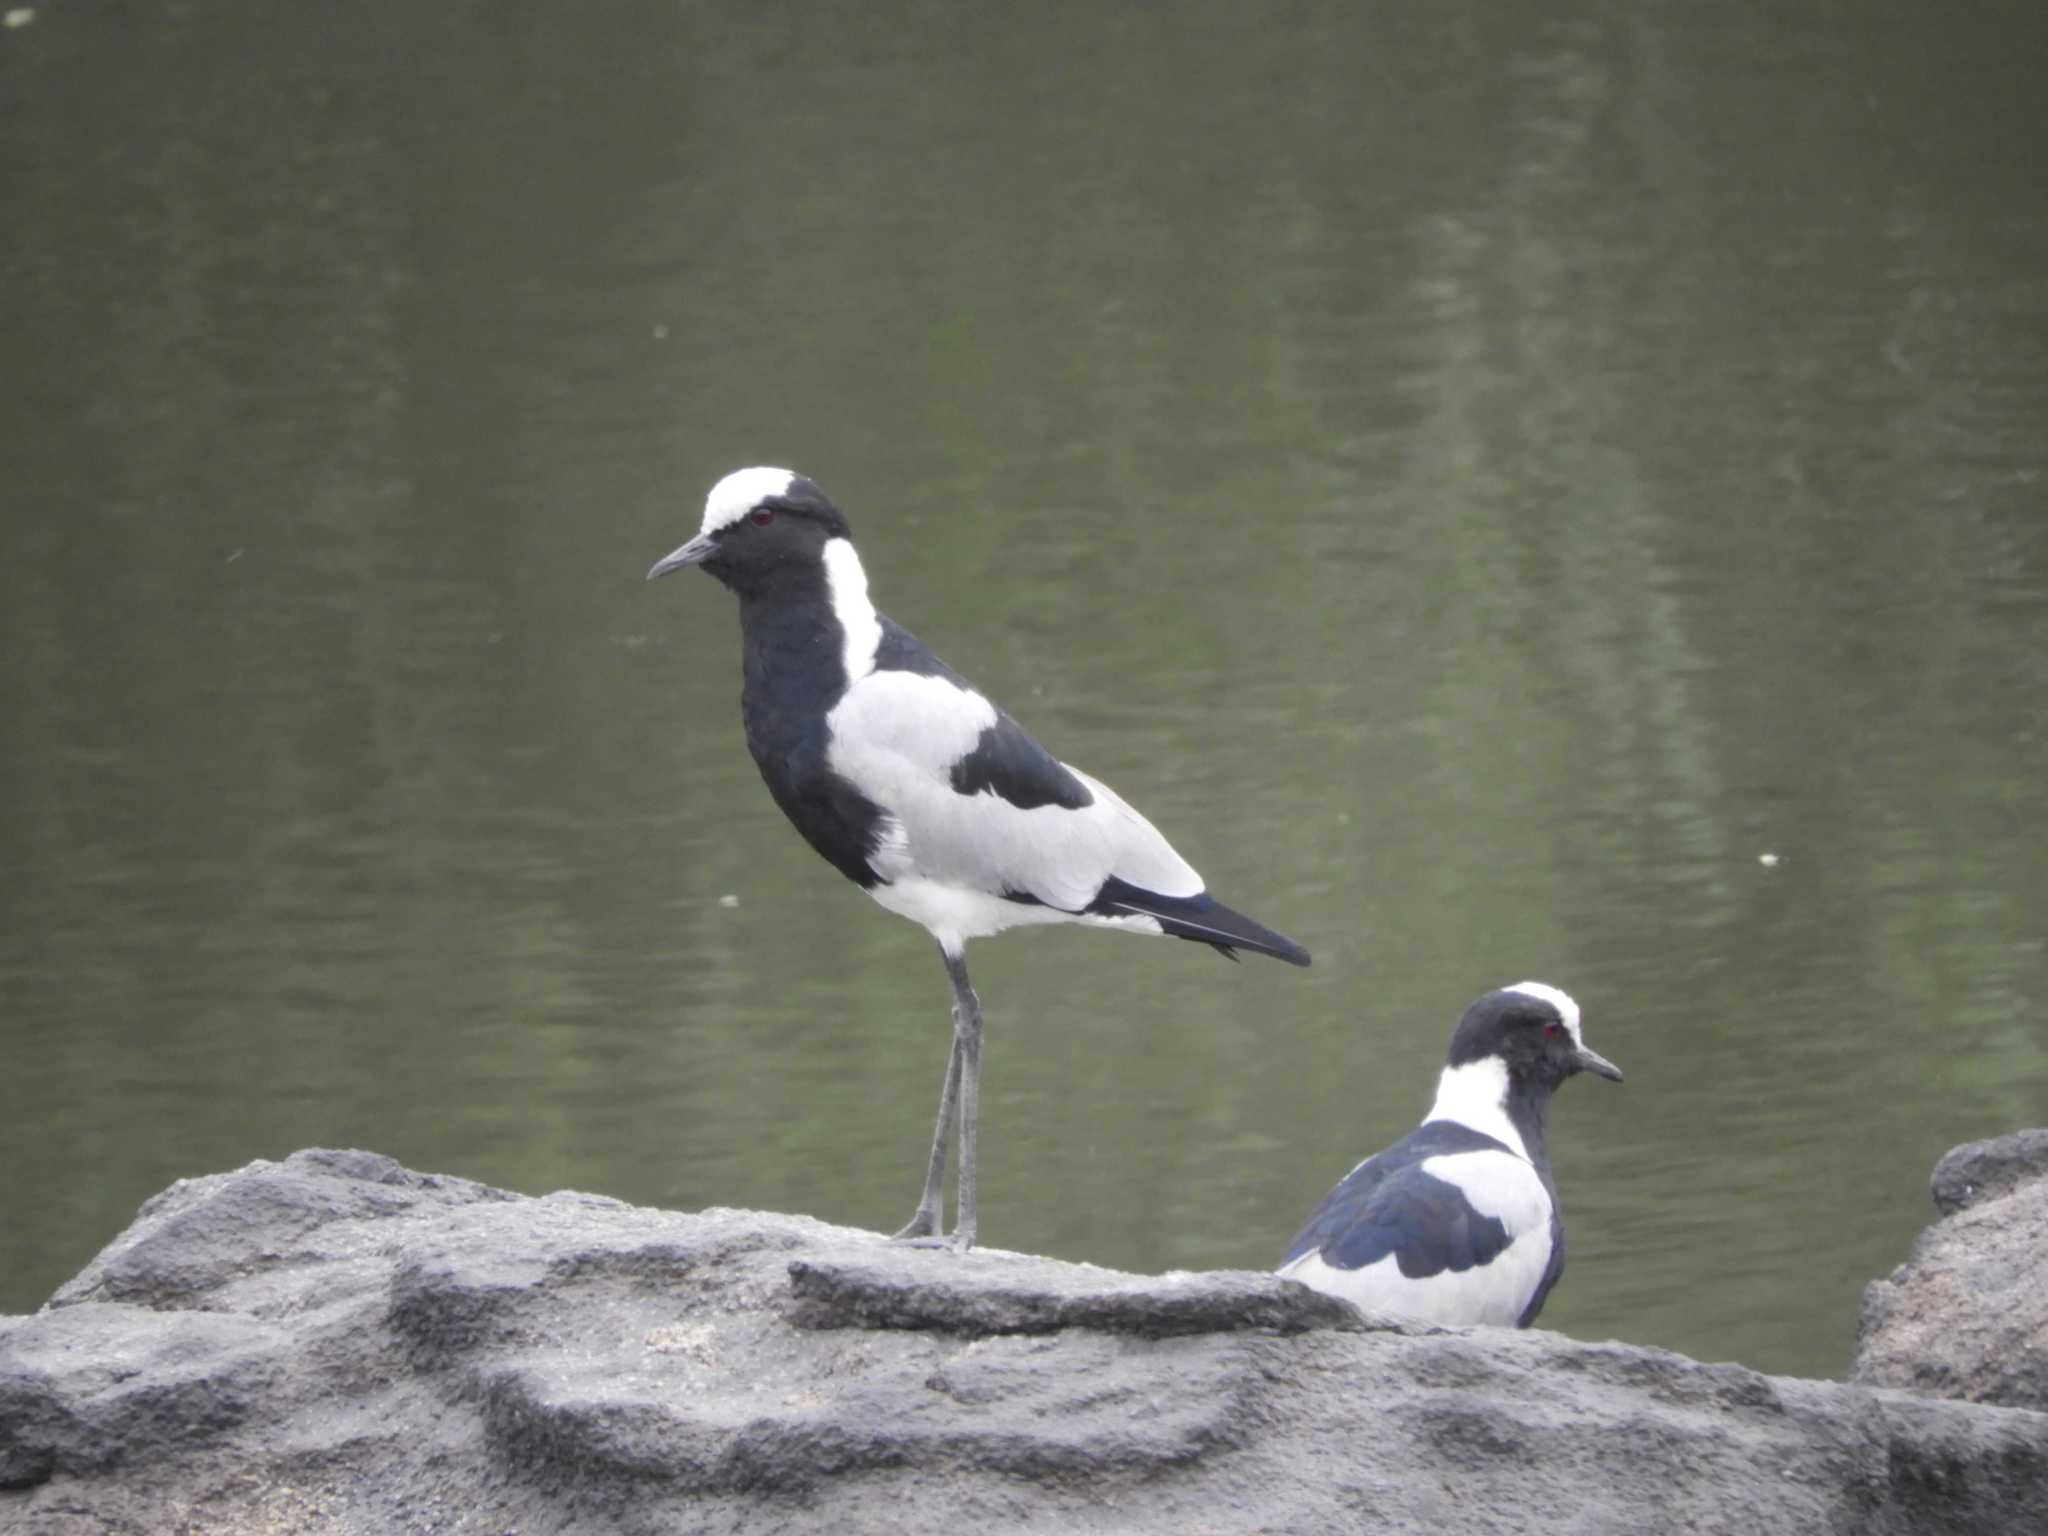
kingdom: Animalia
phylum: Chordata
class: Aves
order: Charadriiformes
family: Charadriidae
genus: Vanellus
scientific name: Vanellus armatus
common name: Blacksmith lapwing
